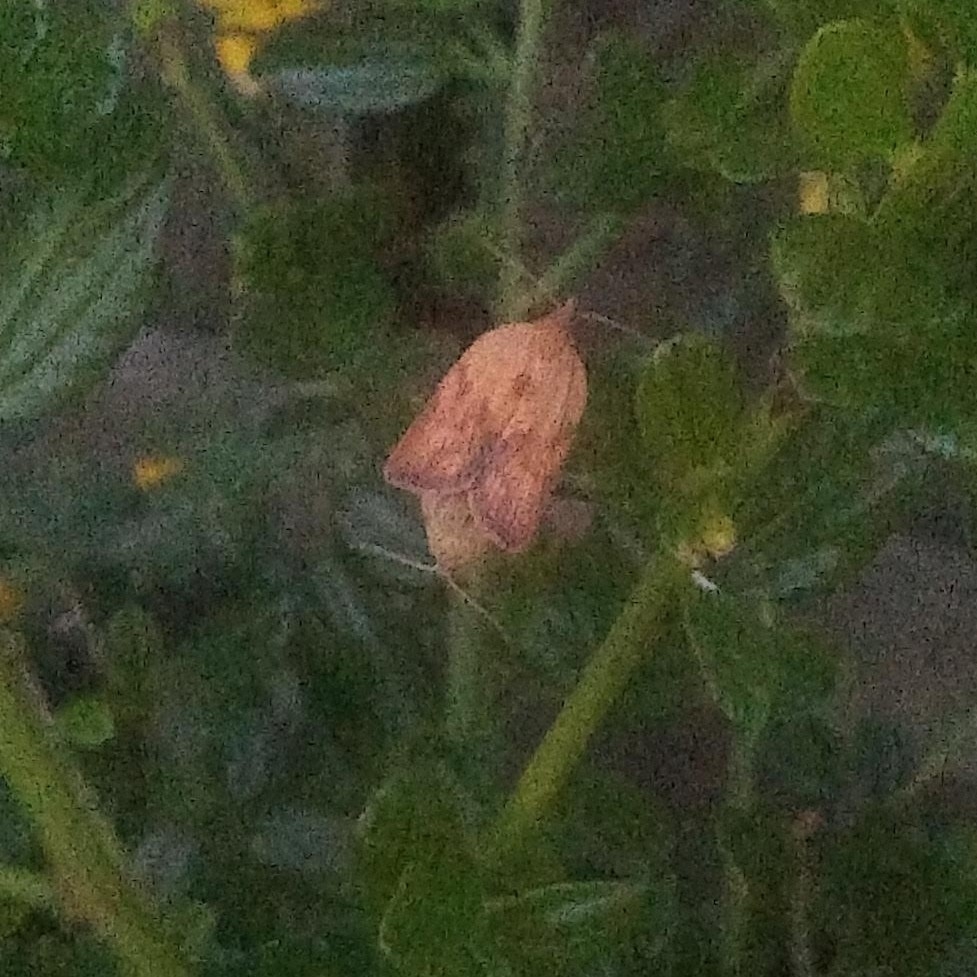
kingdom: Animalia
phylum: Arthropoda
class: Insecta
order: Lepidoptera
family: Tortricidae
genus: Epiphyas
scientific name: Epiphyas postvittana
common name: Light brown apple moth
